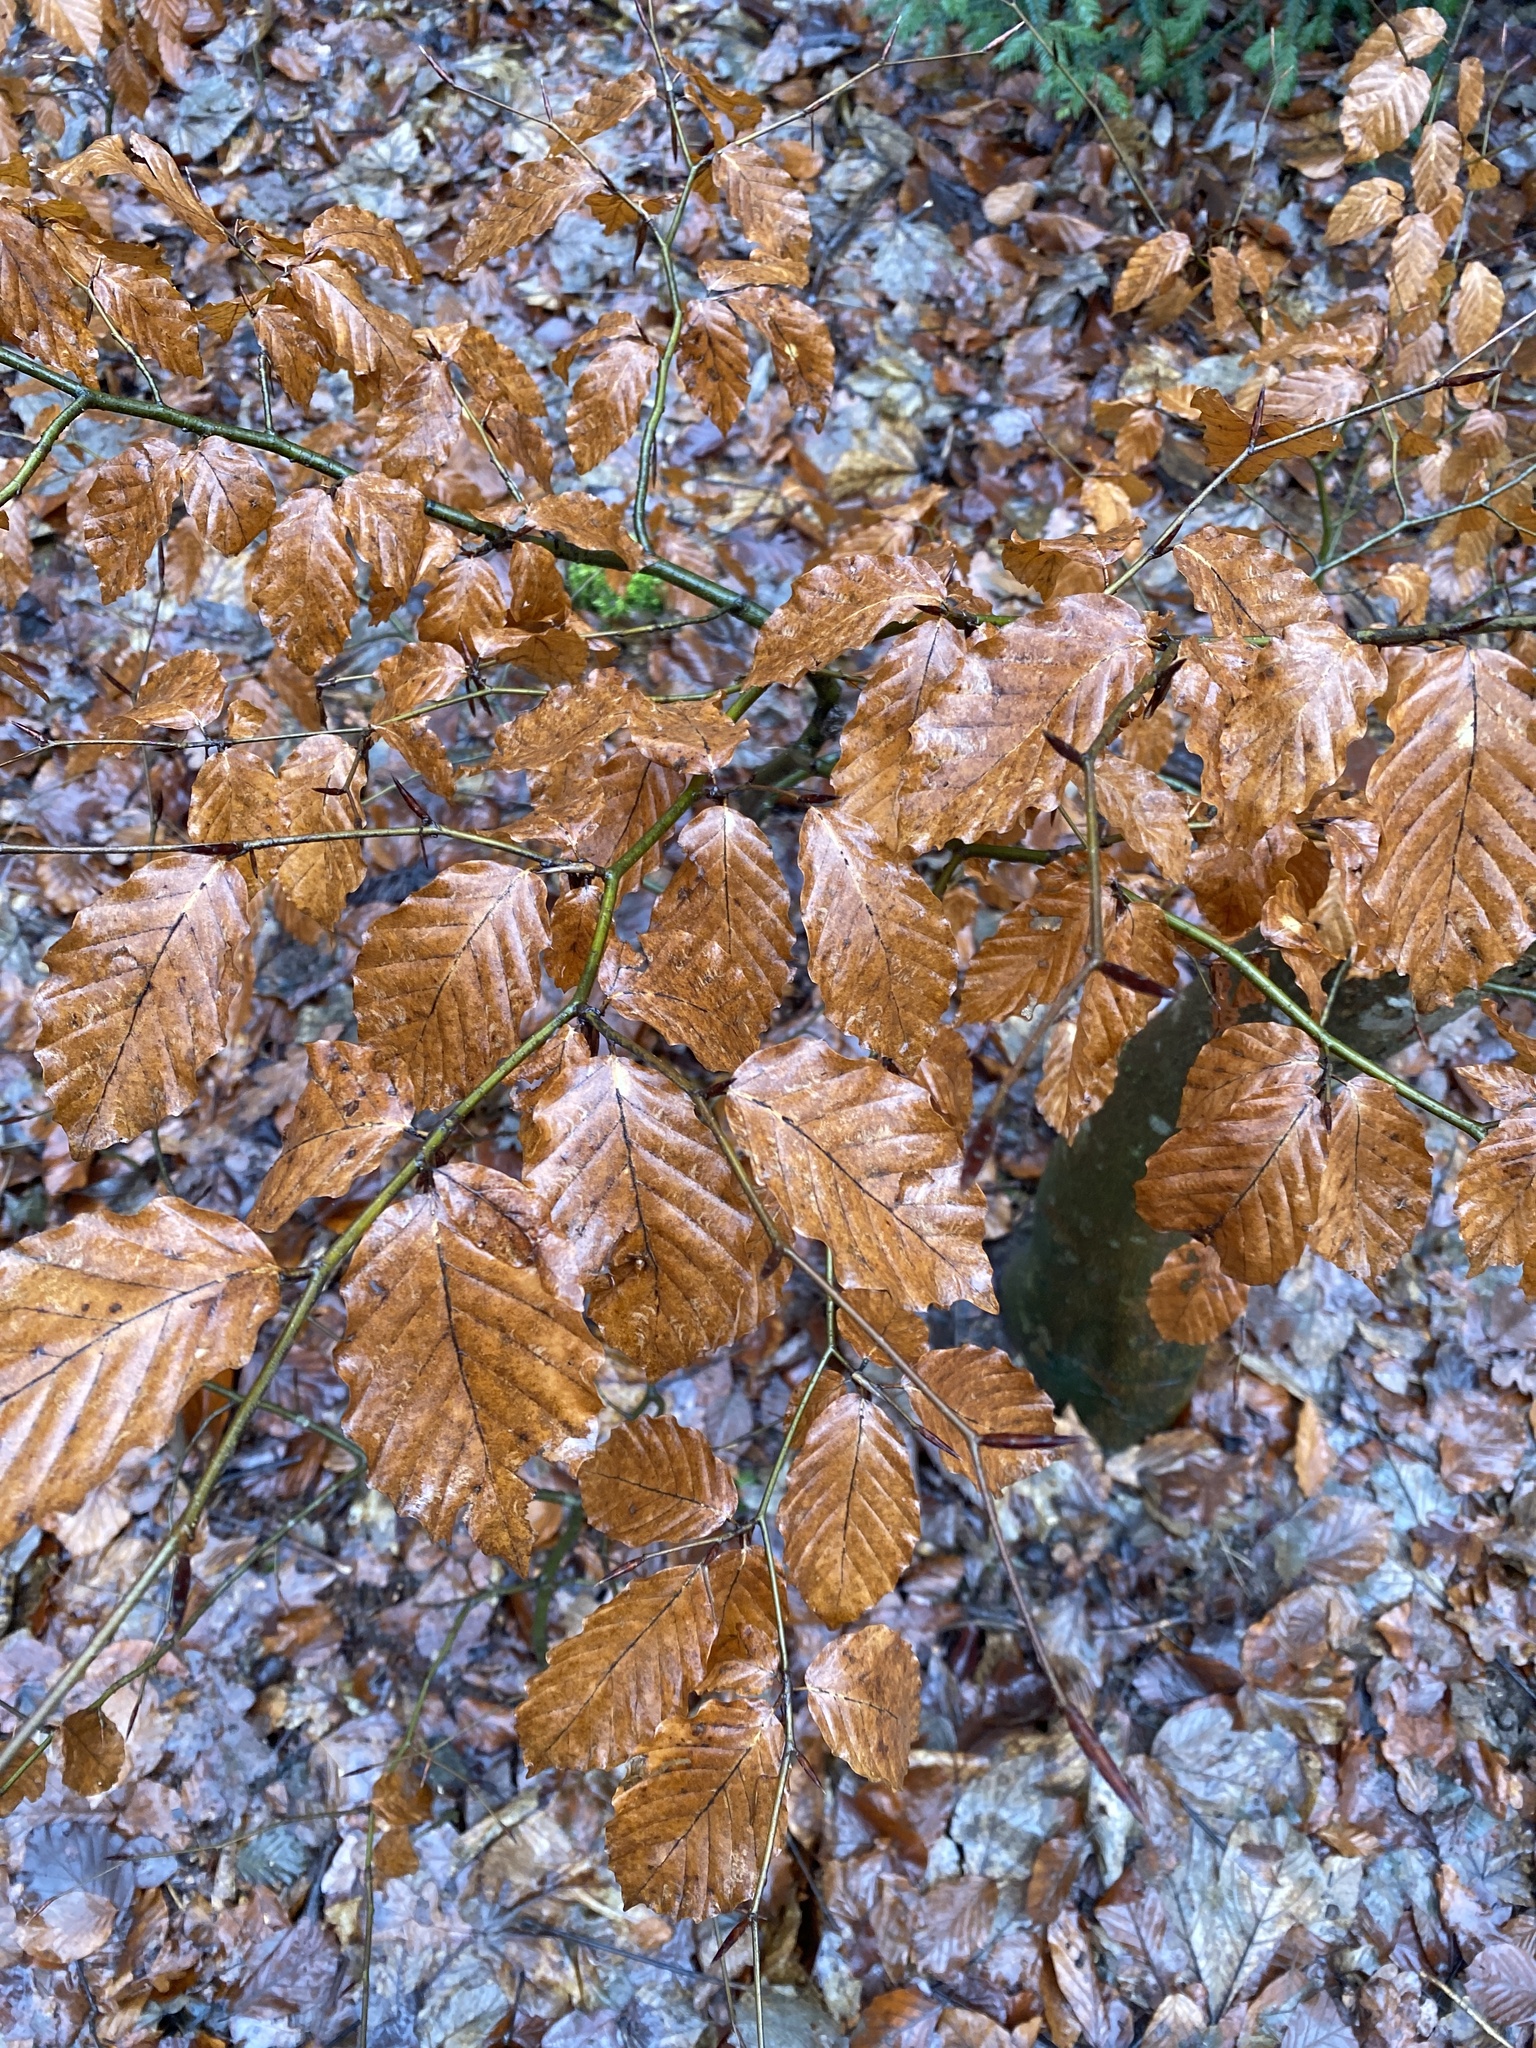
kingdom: Plantae
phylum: Tracheophyta
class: Magnoliopsida
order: Fagales
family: Fagaceae
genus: Fagus
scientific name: Fagus sylvatica
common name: Beech
